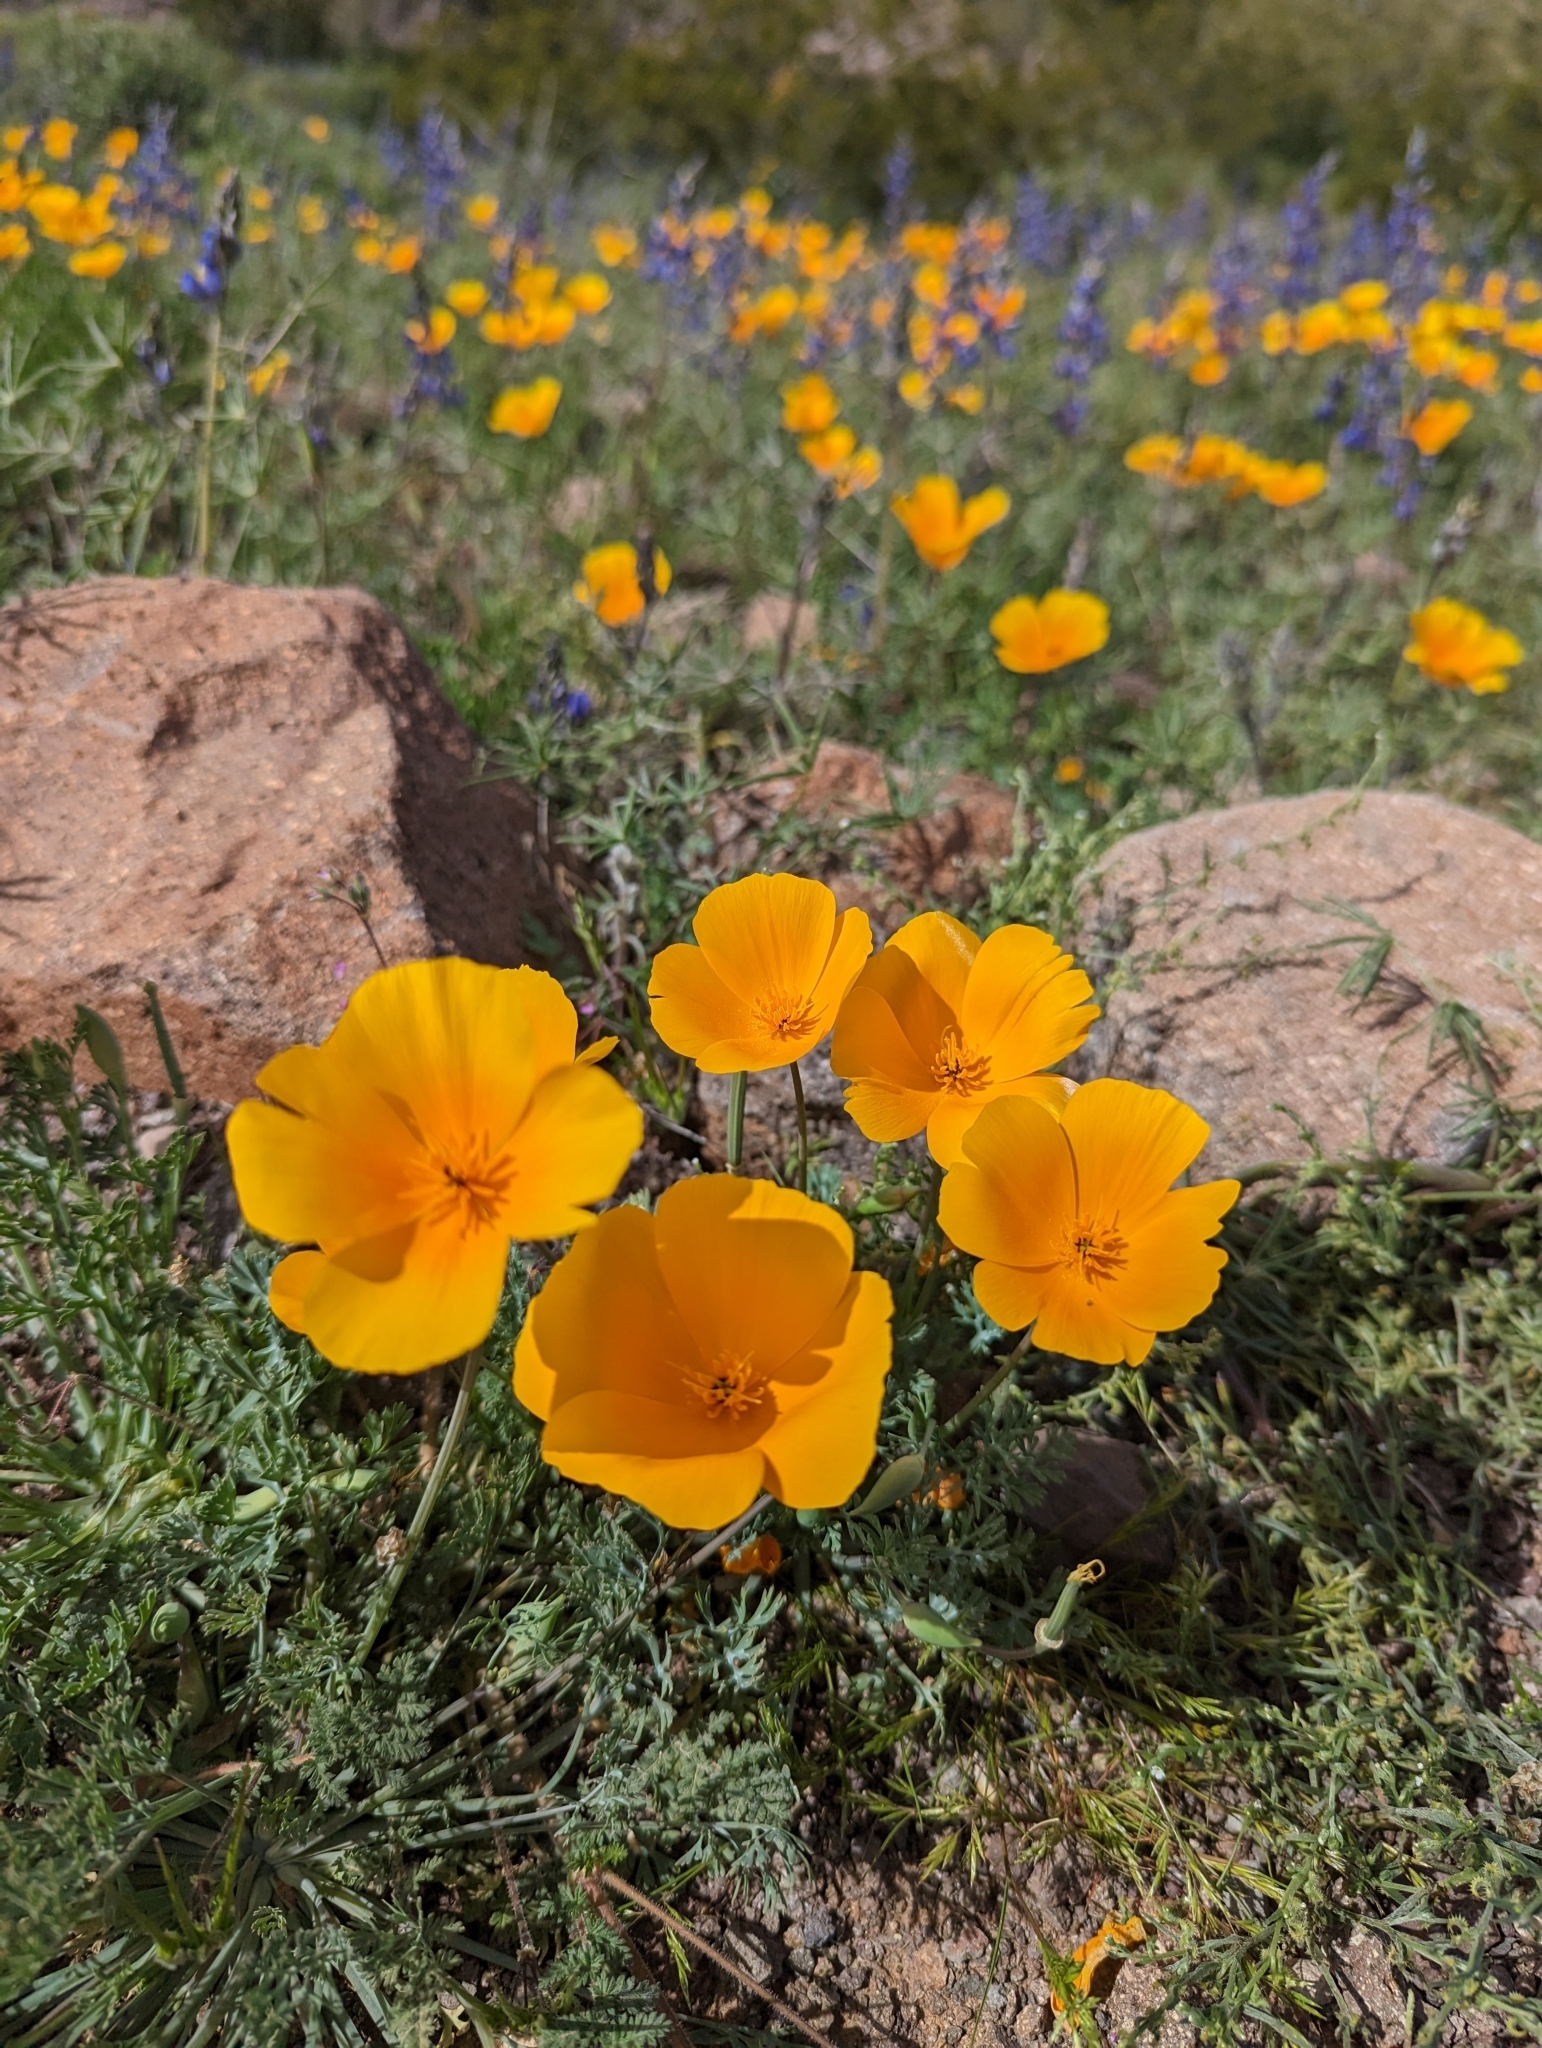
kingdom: Plantae
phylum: Tracheophyta
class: Magnoliopsida
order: Ranunculales
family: Papaveraceae
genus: Eschscholzia
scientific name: Eschscholzia californica
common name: California poppy
